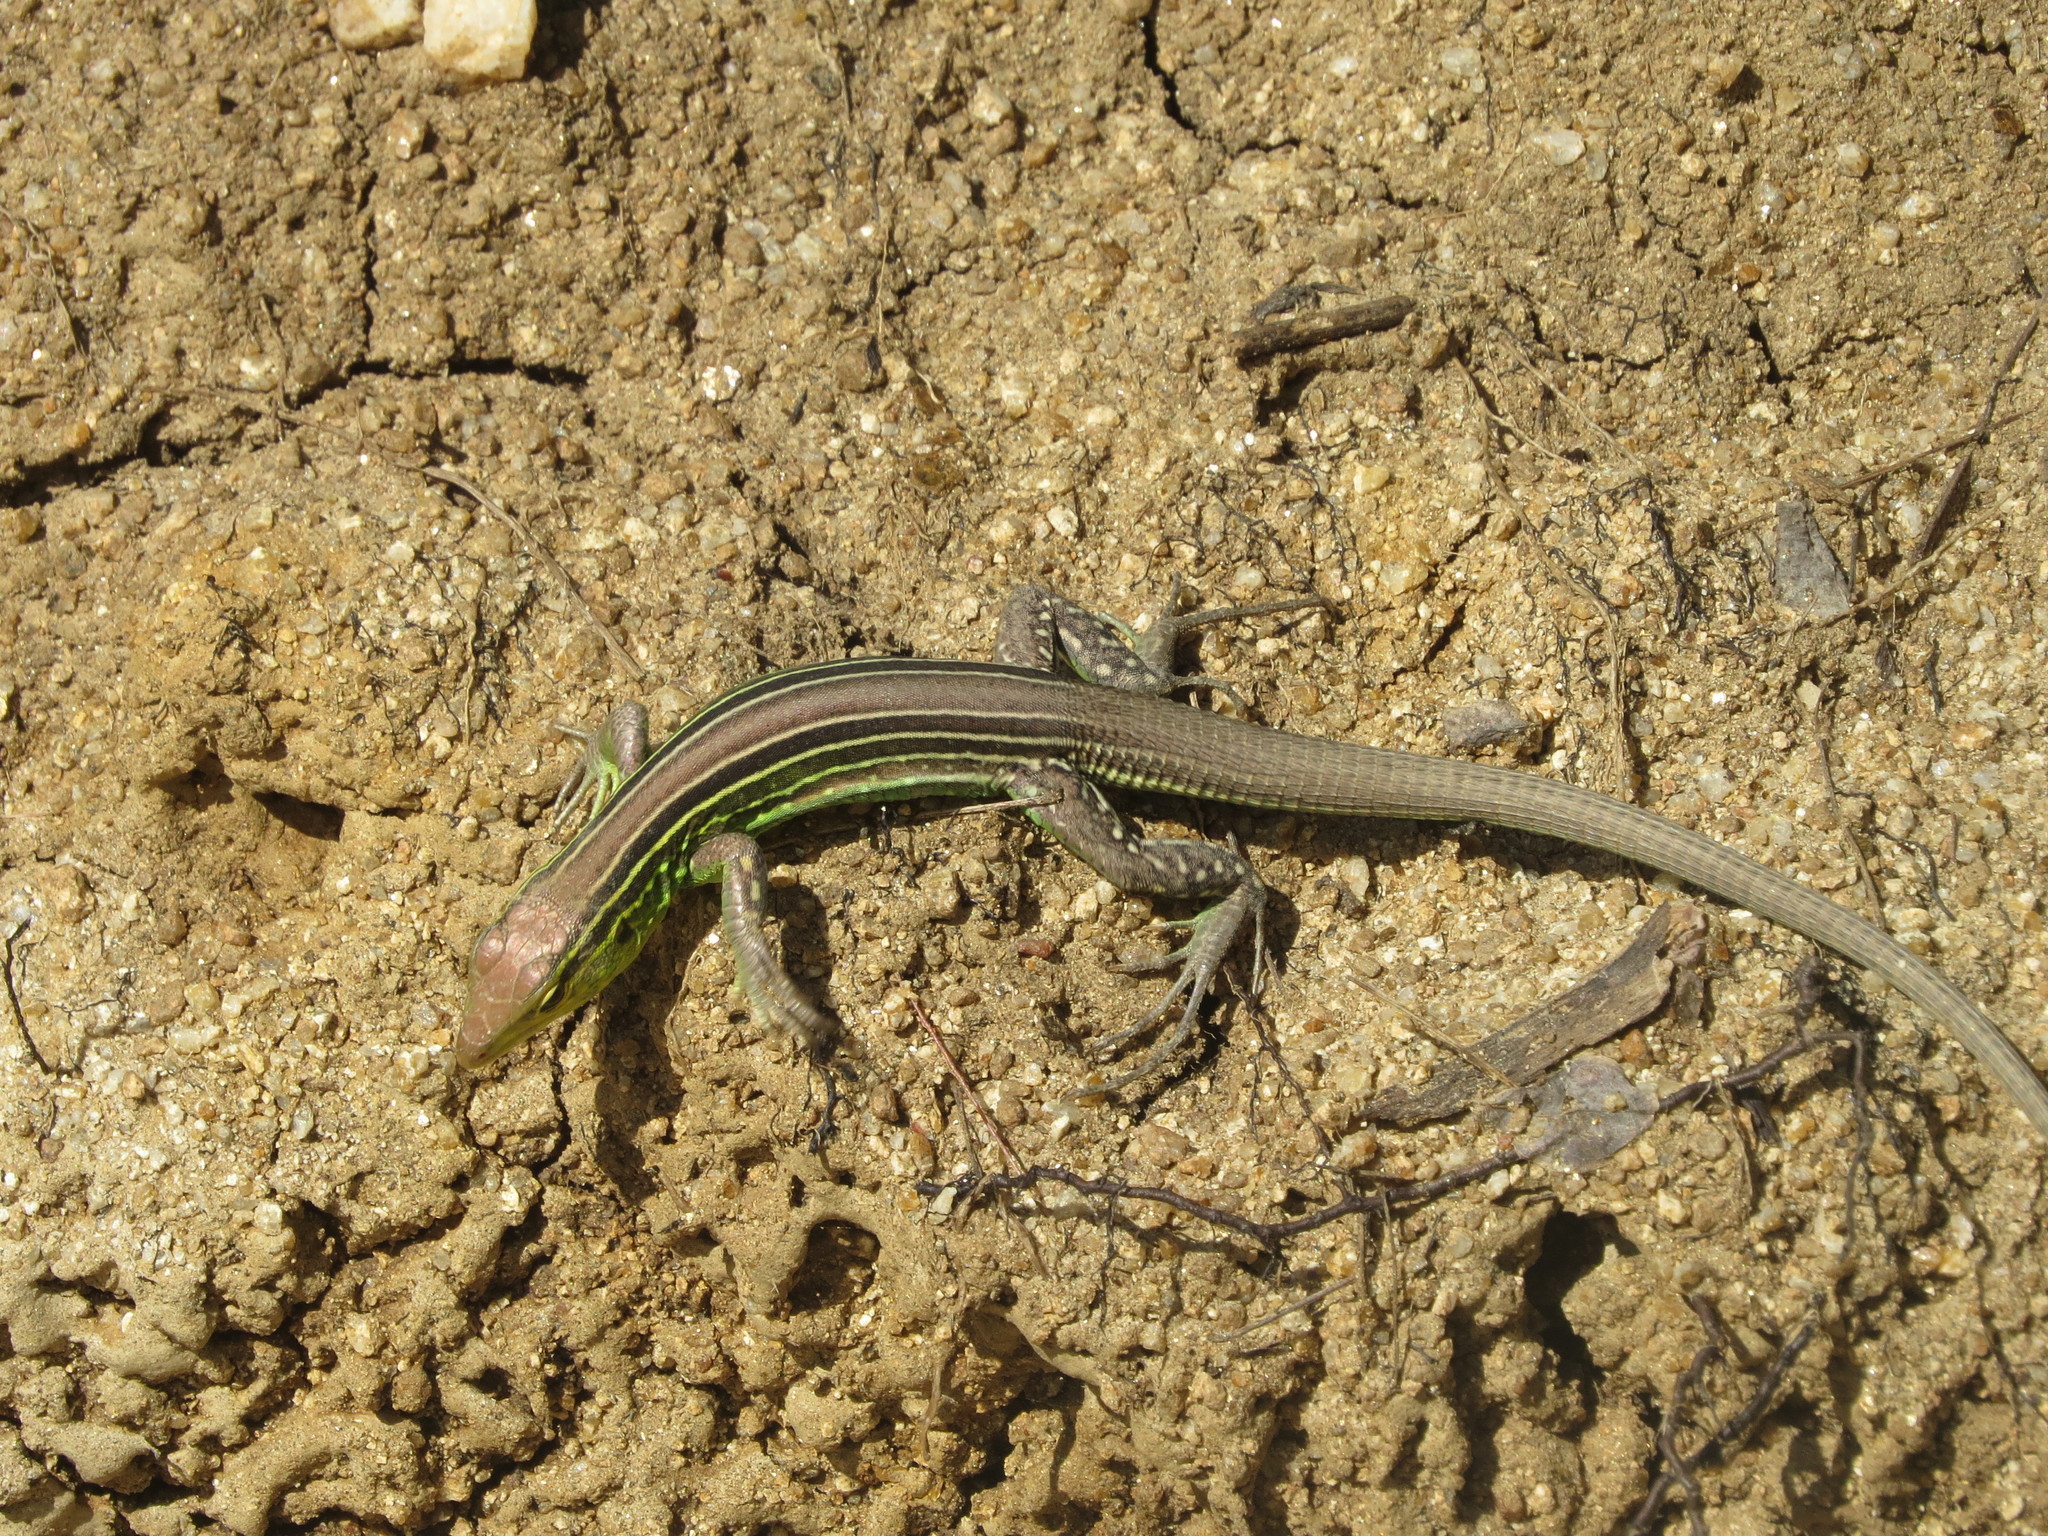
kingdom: Animalia
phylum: Chordata
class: Squamata
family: Teiidae
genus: Cnemidophorus
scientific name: Cnemidophorus gaigei
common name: Gaige’s rainbow lizard
